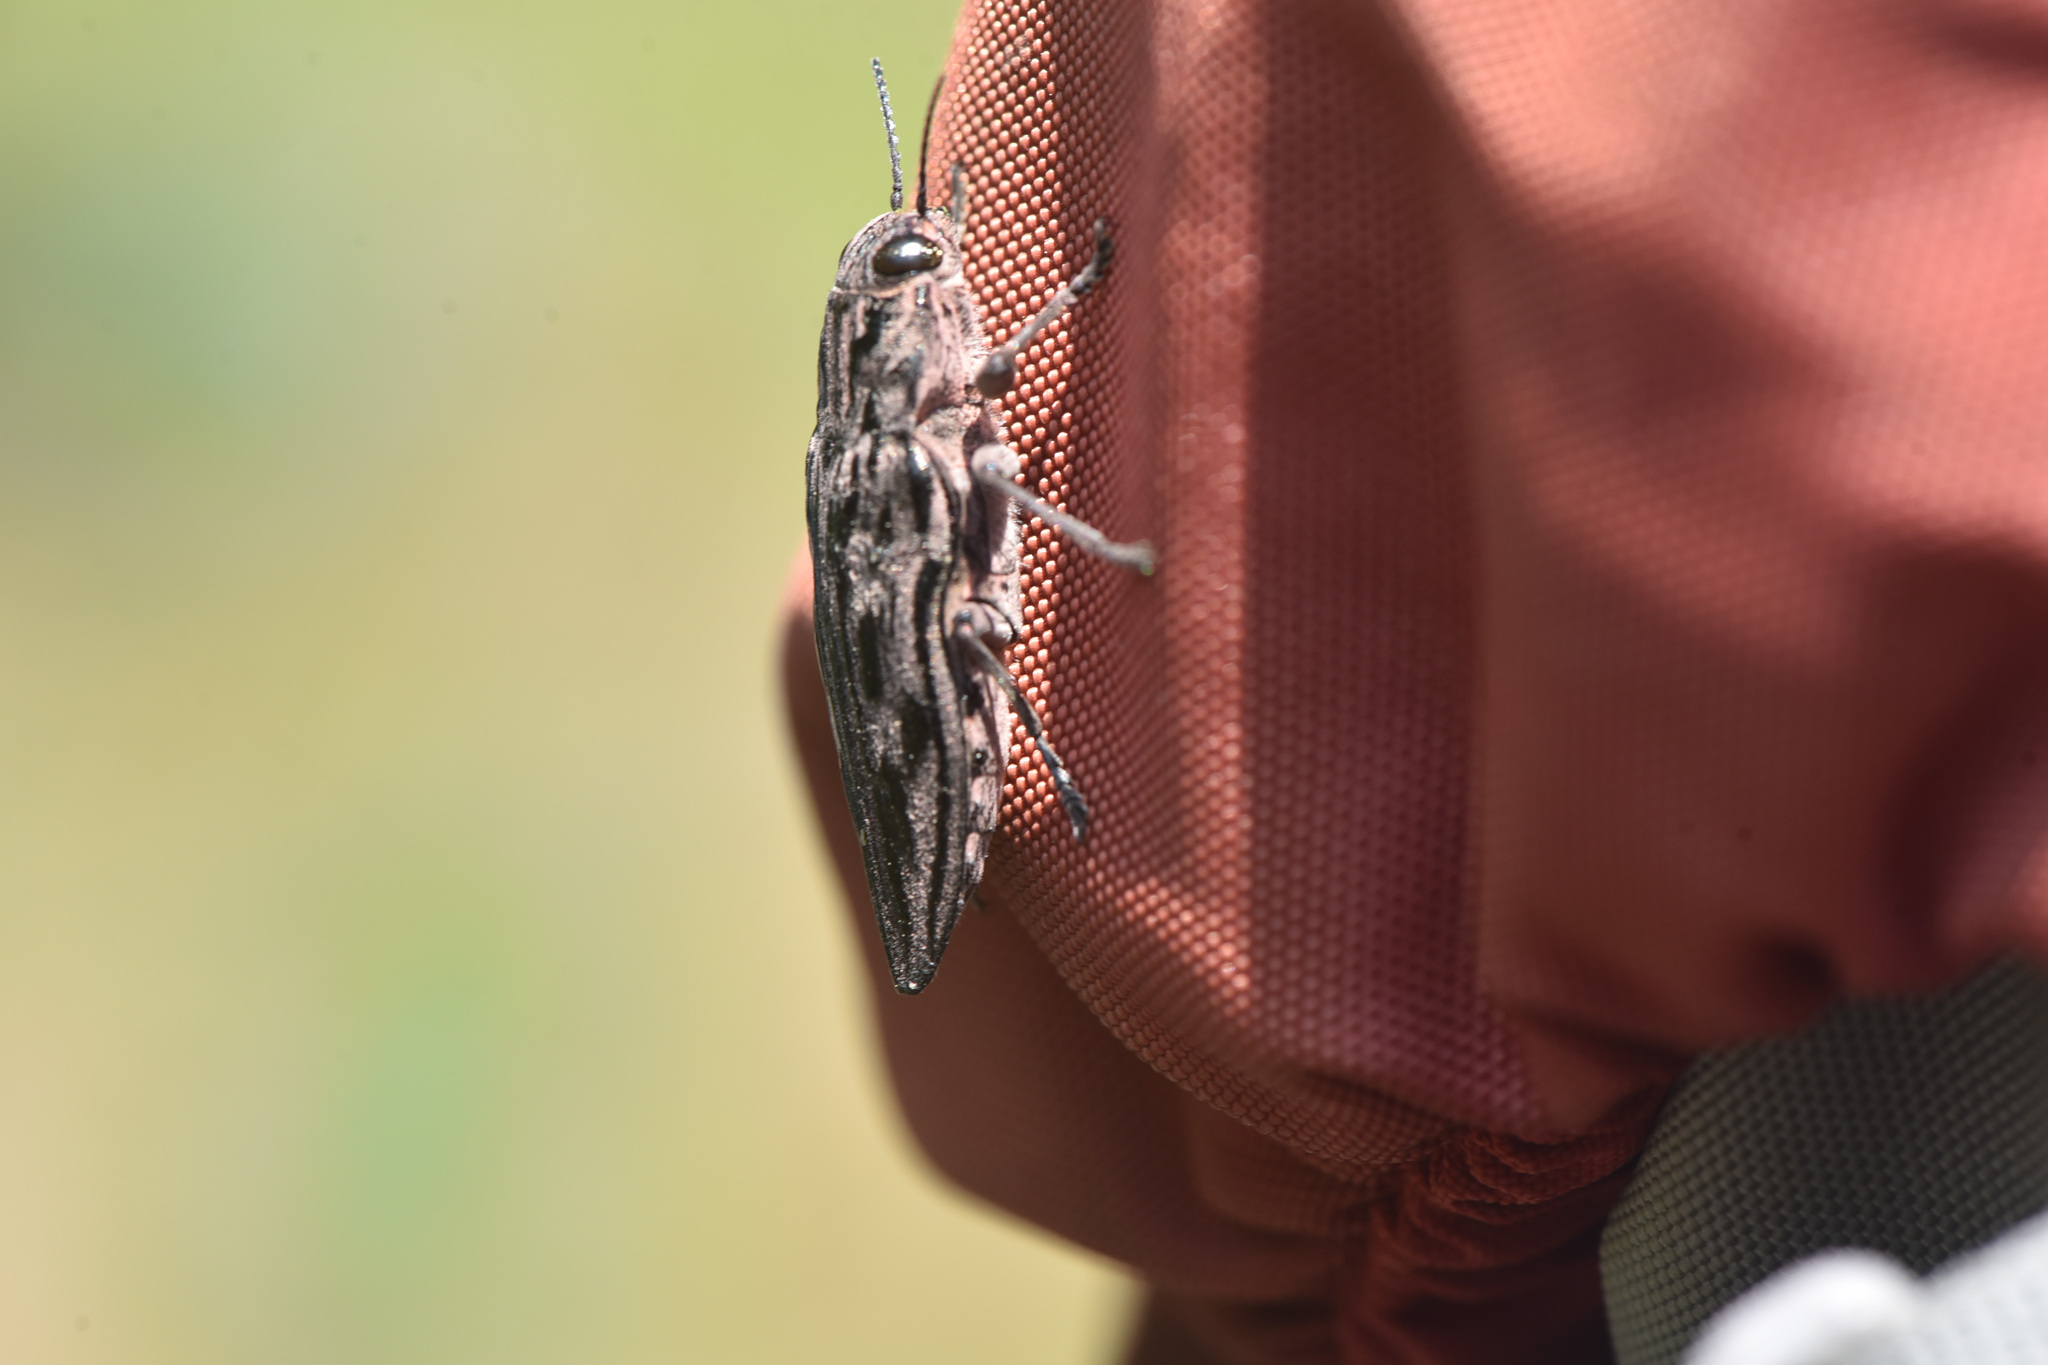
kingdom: Animalia
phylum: Arthropoda
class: Insecta
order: Coleoptera
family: Buprestidae
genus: Chalcophora
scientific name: Chalcophora angulicollis
